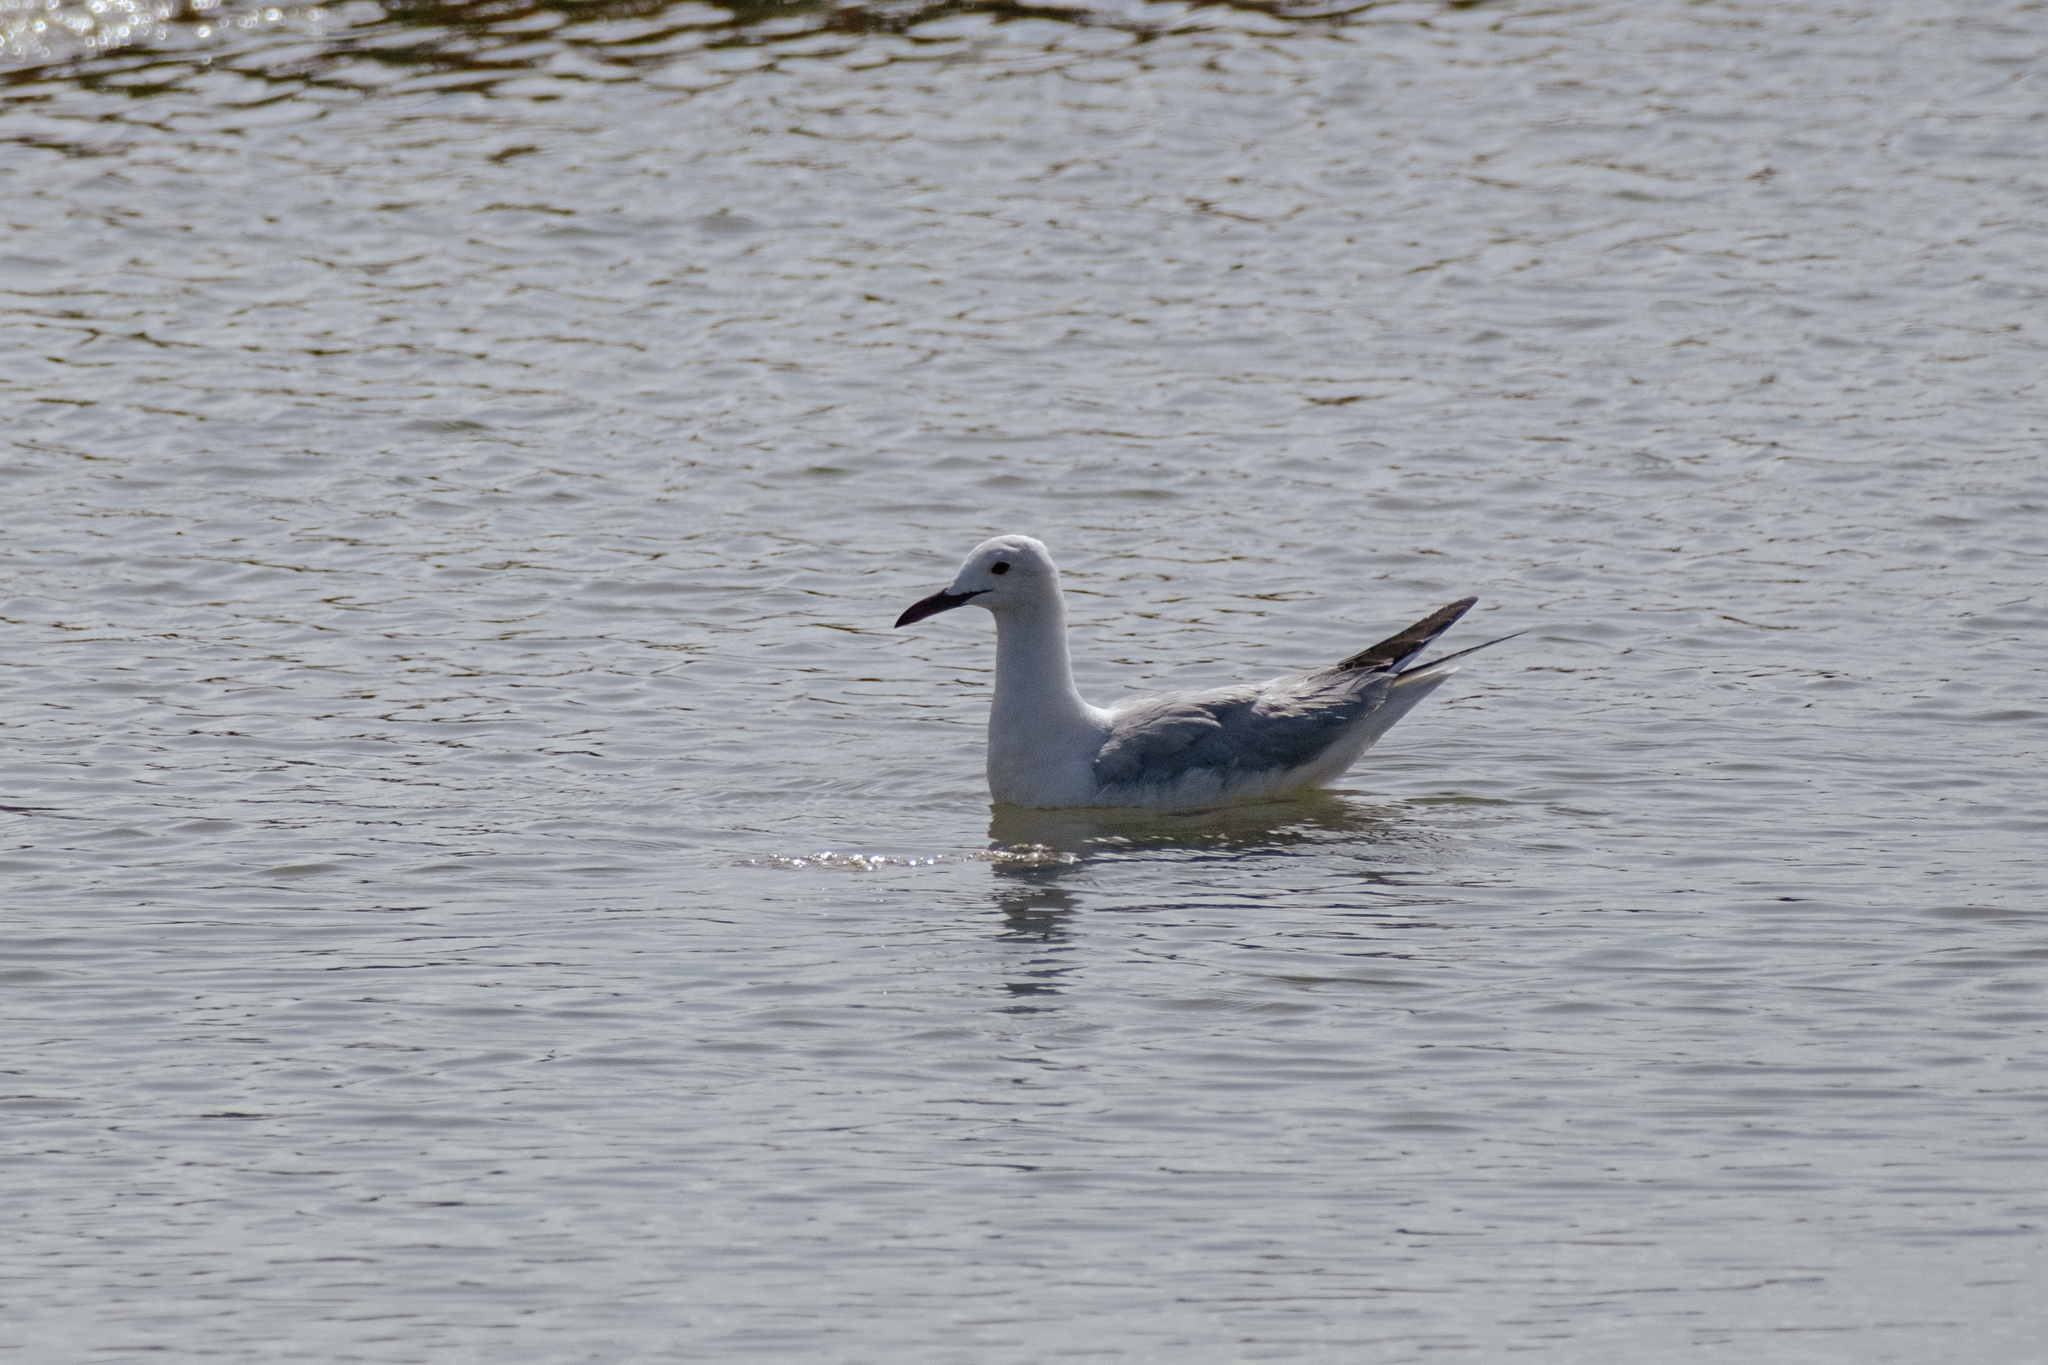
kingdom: Animalia
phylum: Chordata
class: Aves
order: Charadriiformes
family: Laridae
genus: Chroicocephalus
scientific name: Chroicocephalus genei
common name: Slender-billed gull
